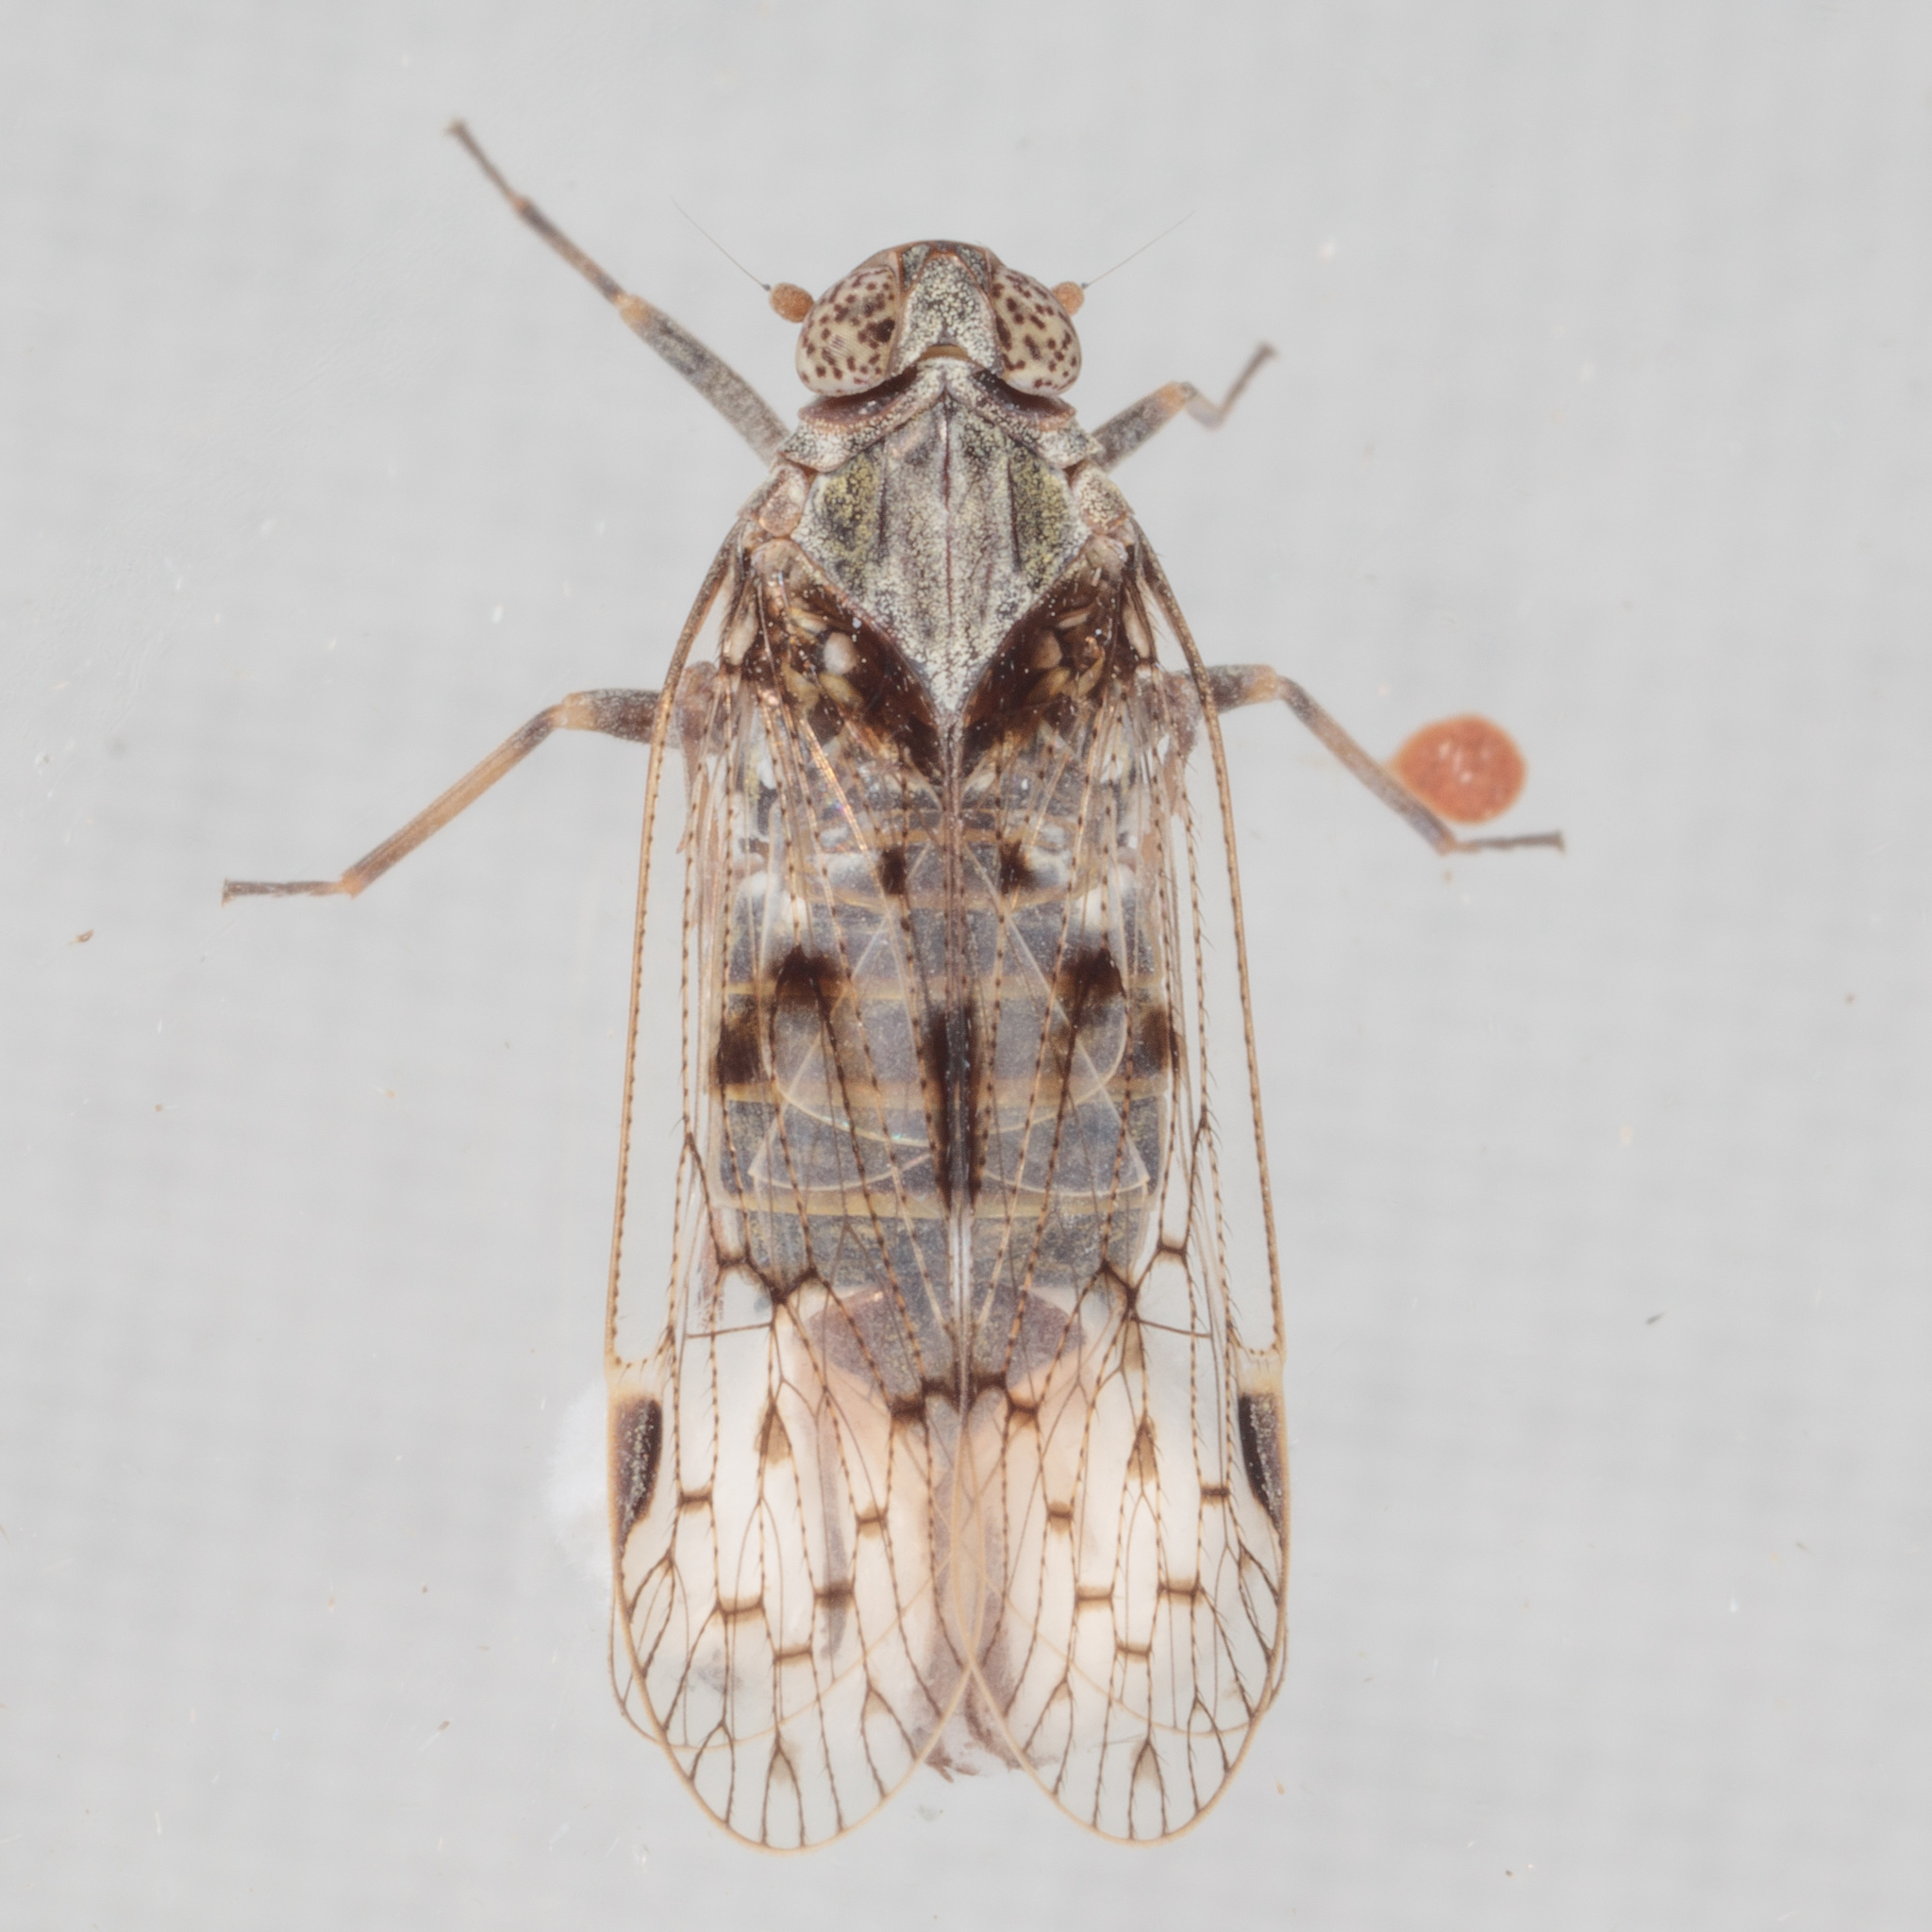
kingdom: Animalia
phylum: Arthropoda
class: Insecta
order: Hemiptera
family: Cixiidae
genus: Melanoliarus
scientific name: Melanoliarus aridus
